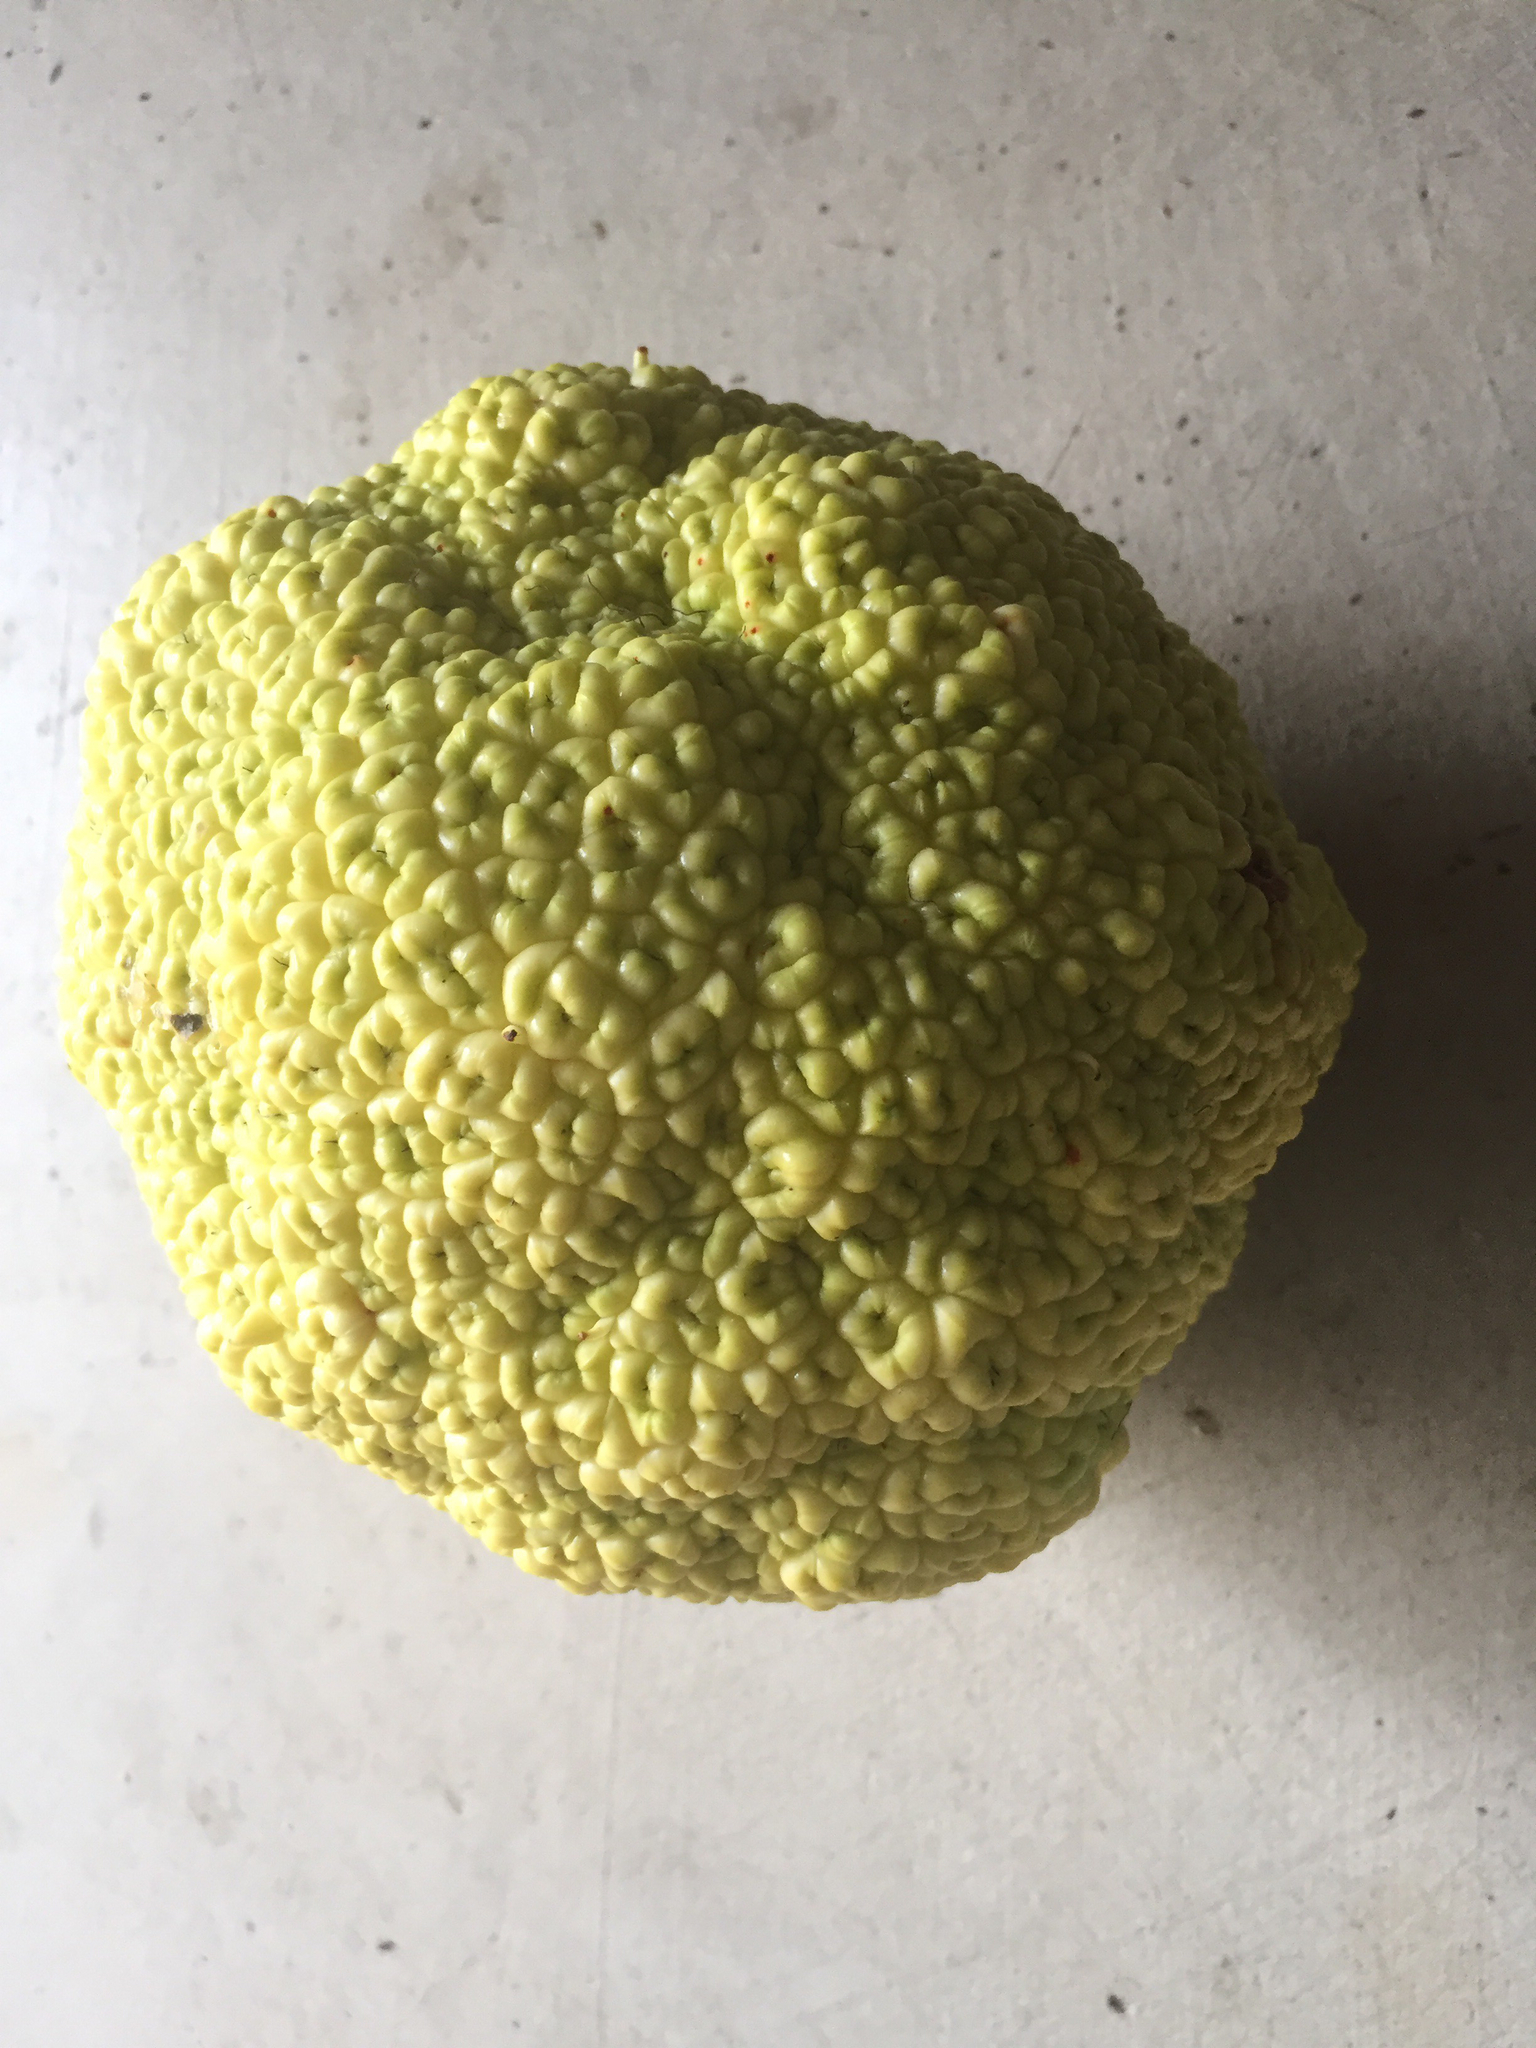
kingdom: Plantae
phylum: Tracheophyta
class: Magnoliopsida
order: Rosales
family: Moraceae
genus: Maclura
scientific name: Maclura pomifera
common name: Osage-orange
